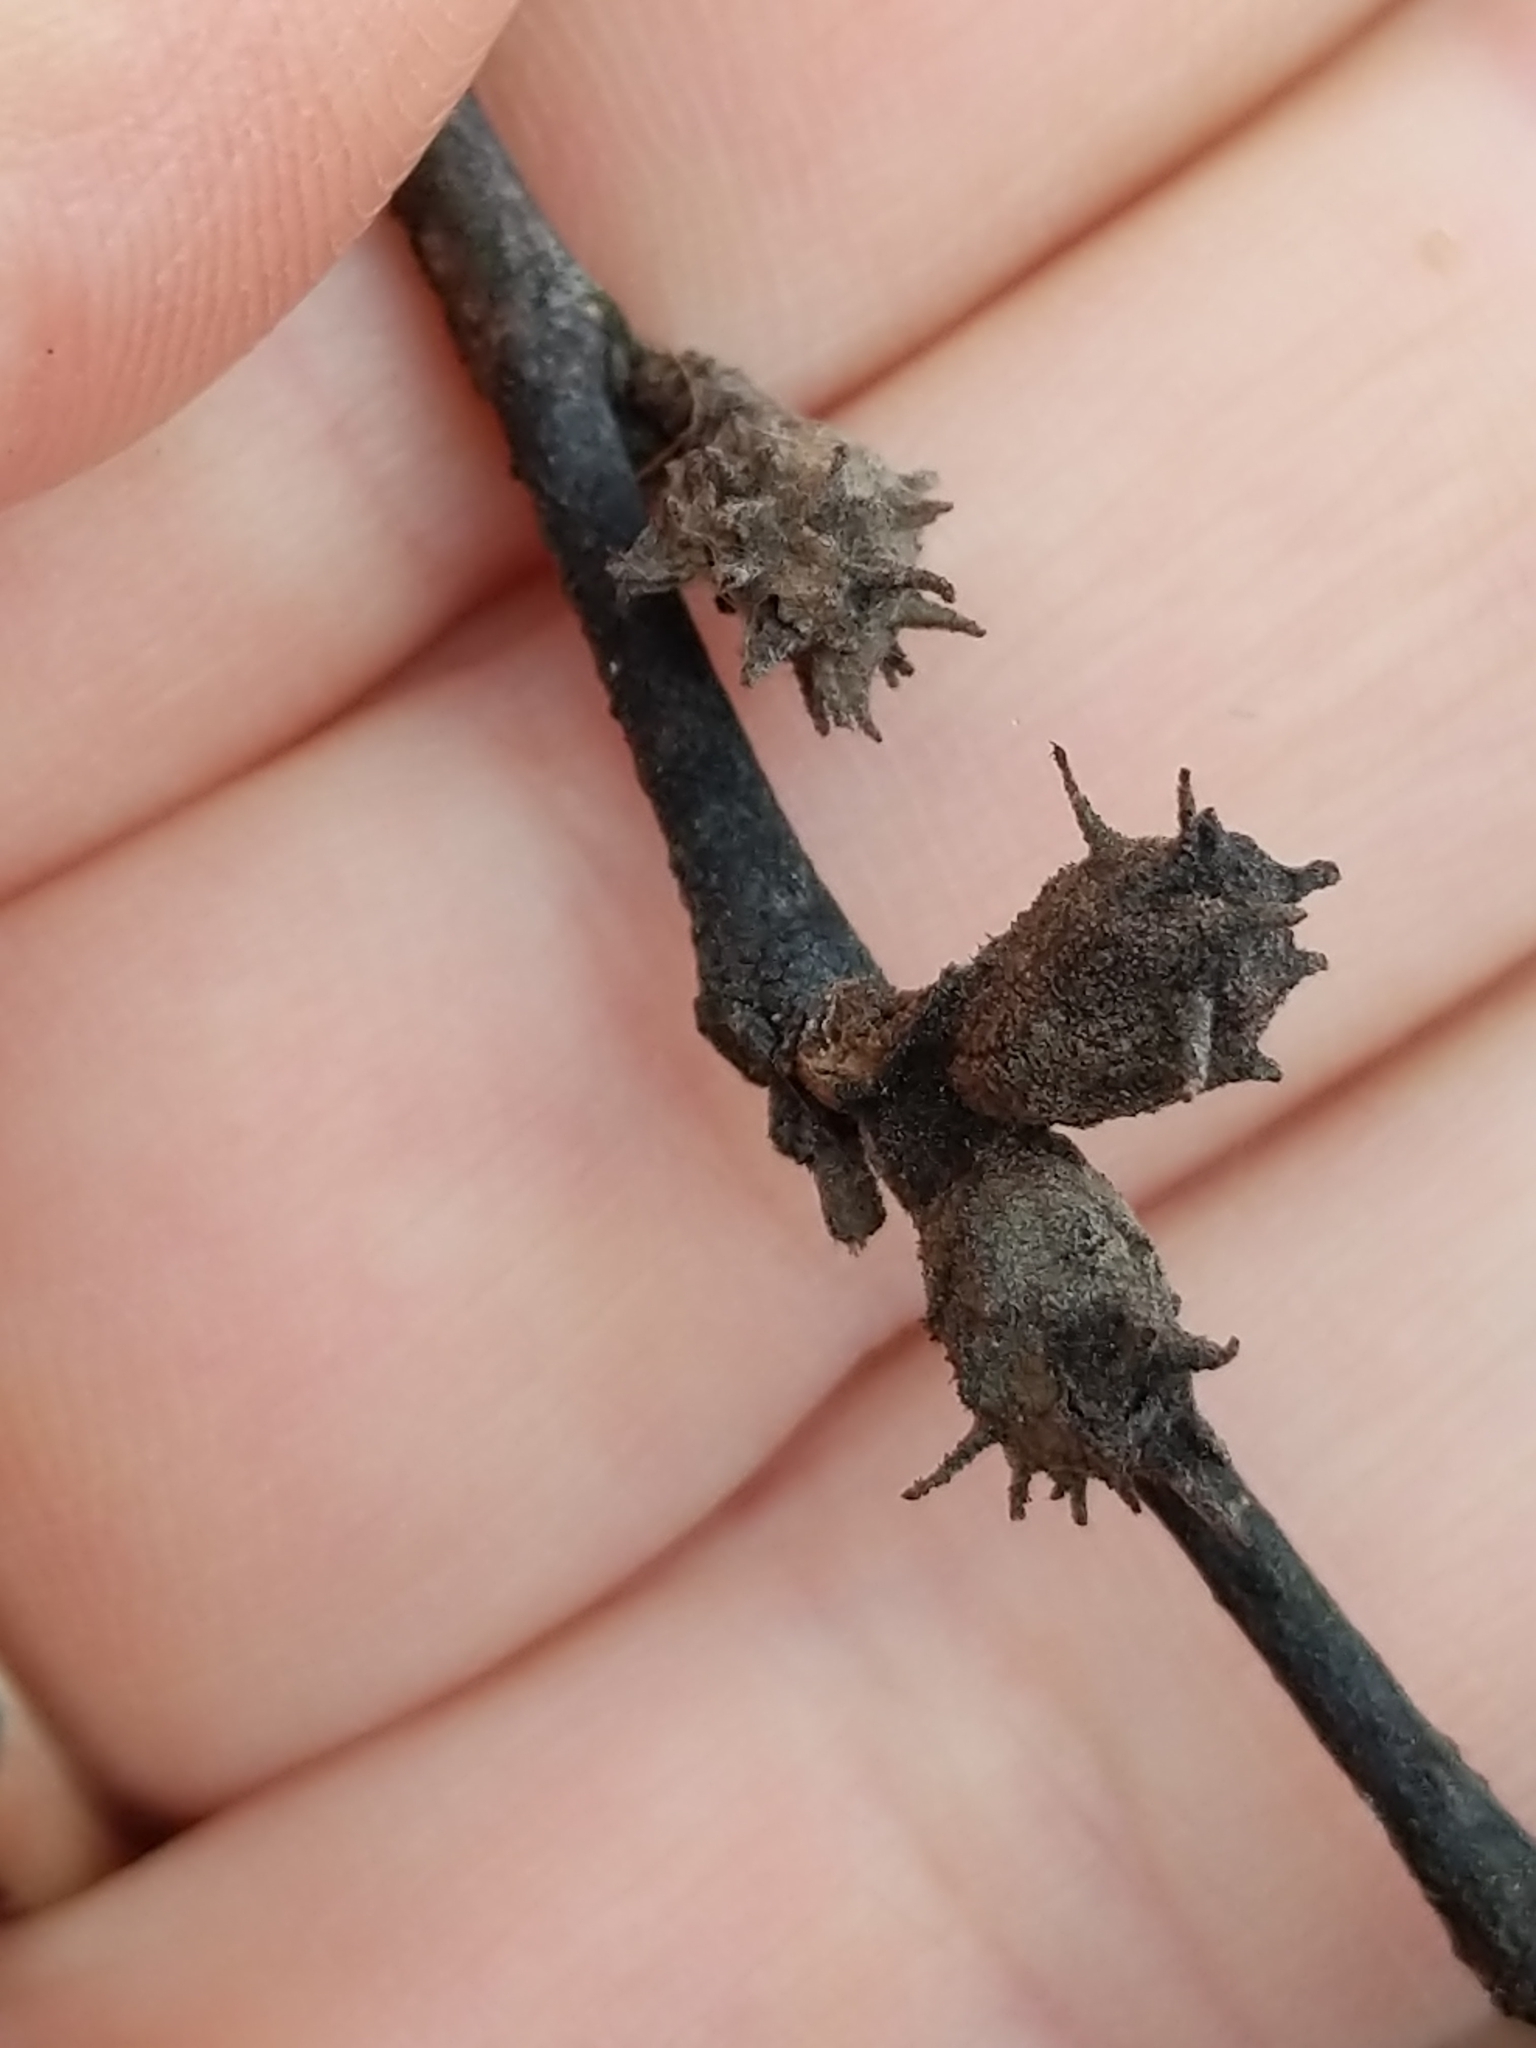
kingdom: Animalia
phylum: Arthropoda
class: Insecta
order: Hemiptera
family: Aphididae
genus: Hamamelistes
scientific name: Hamamelistes spinosus
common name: Witch hazel gall aphid
